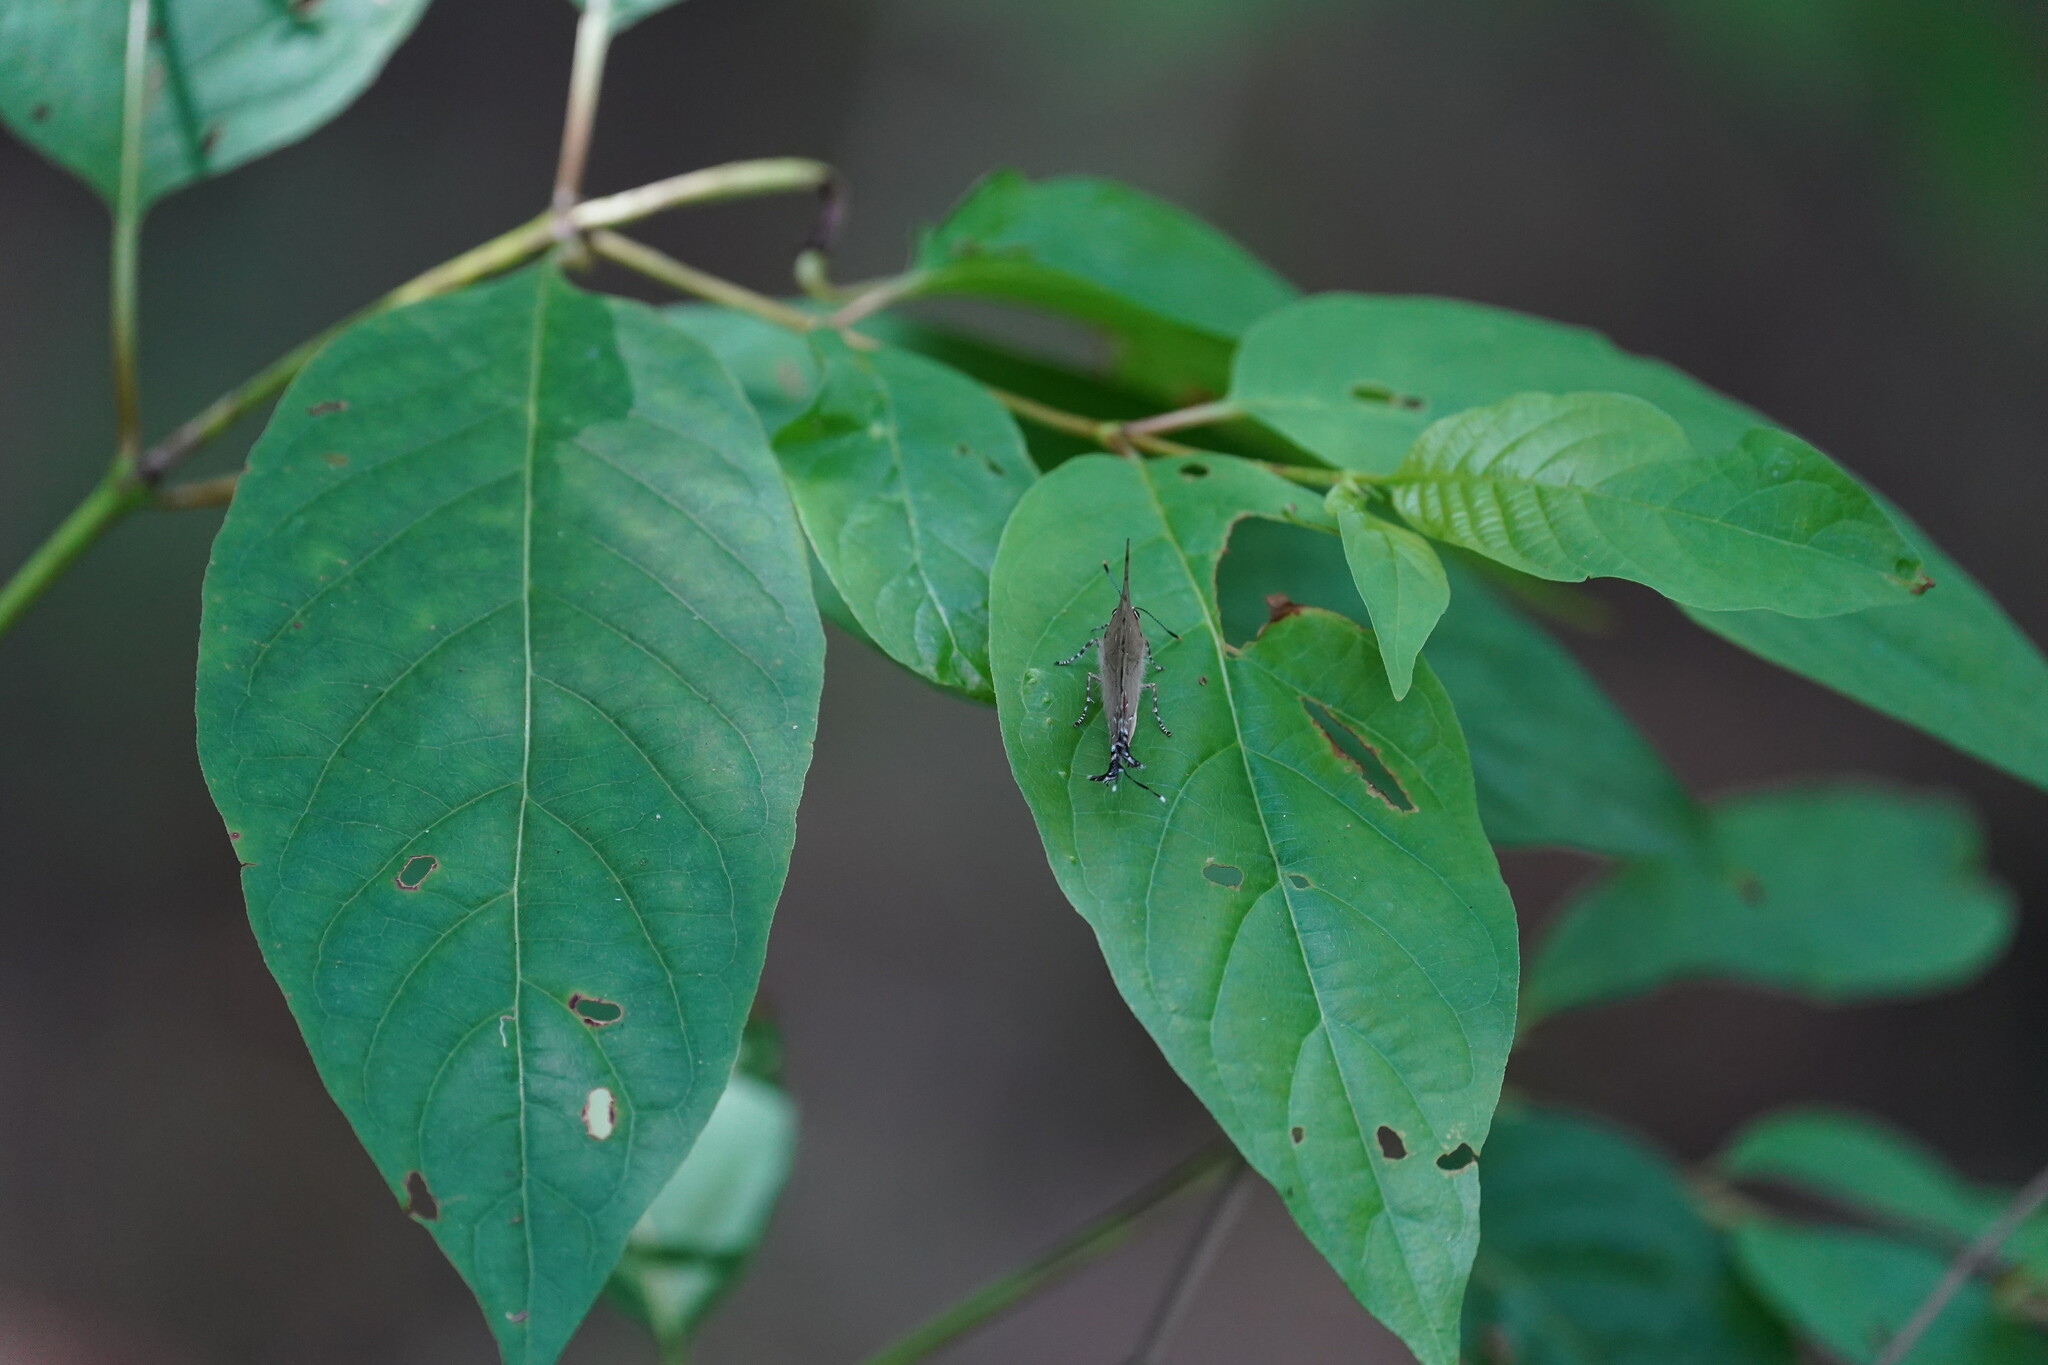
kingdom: Animalia
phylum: Arthropoda
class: Insecta
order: Lepidoptera
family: Lycaenidae
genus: Parrhasius
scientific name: Parrhasius m-album
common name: White m hairstreak
